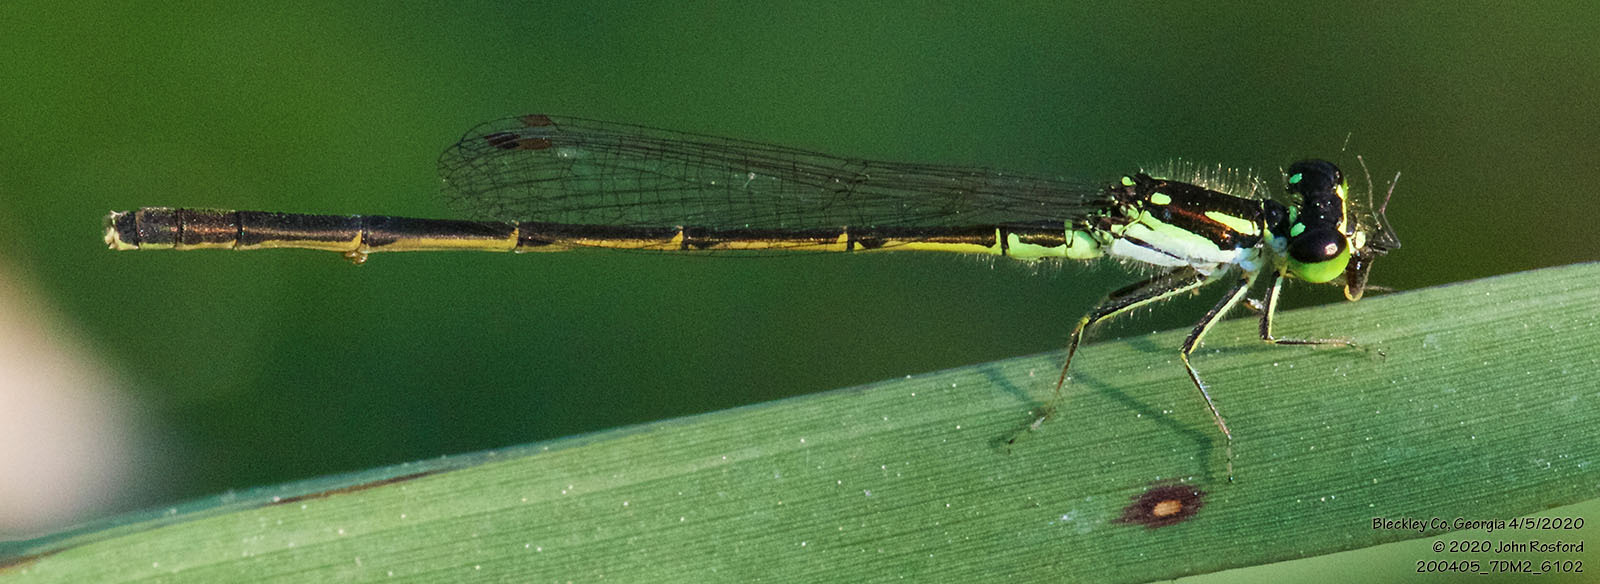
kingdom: Animalia
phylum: Arthropoda
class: Insecta
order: Odonata
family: Coenagrionidae
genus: Ischnura
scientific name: Ischnura posita
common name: Fragile forktail
